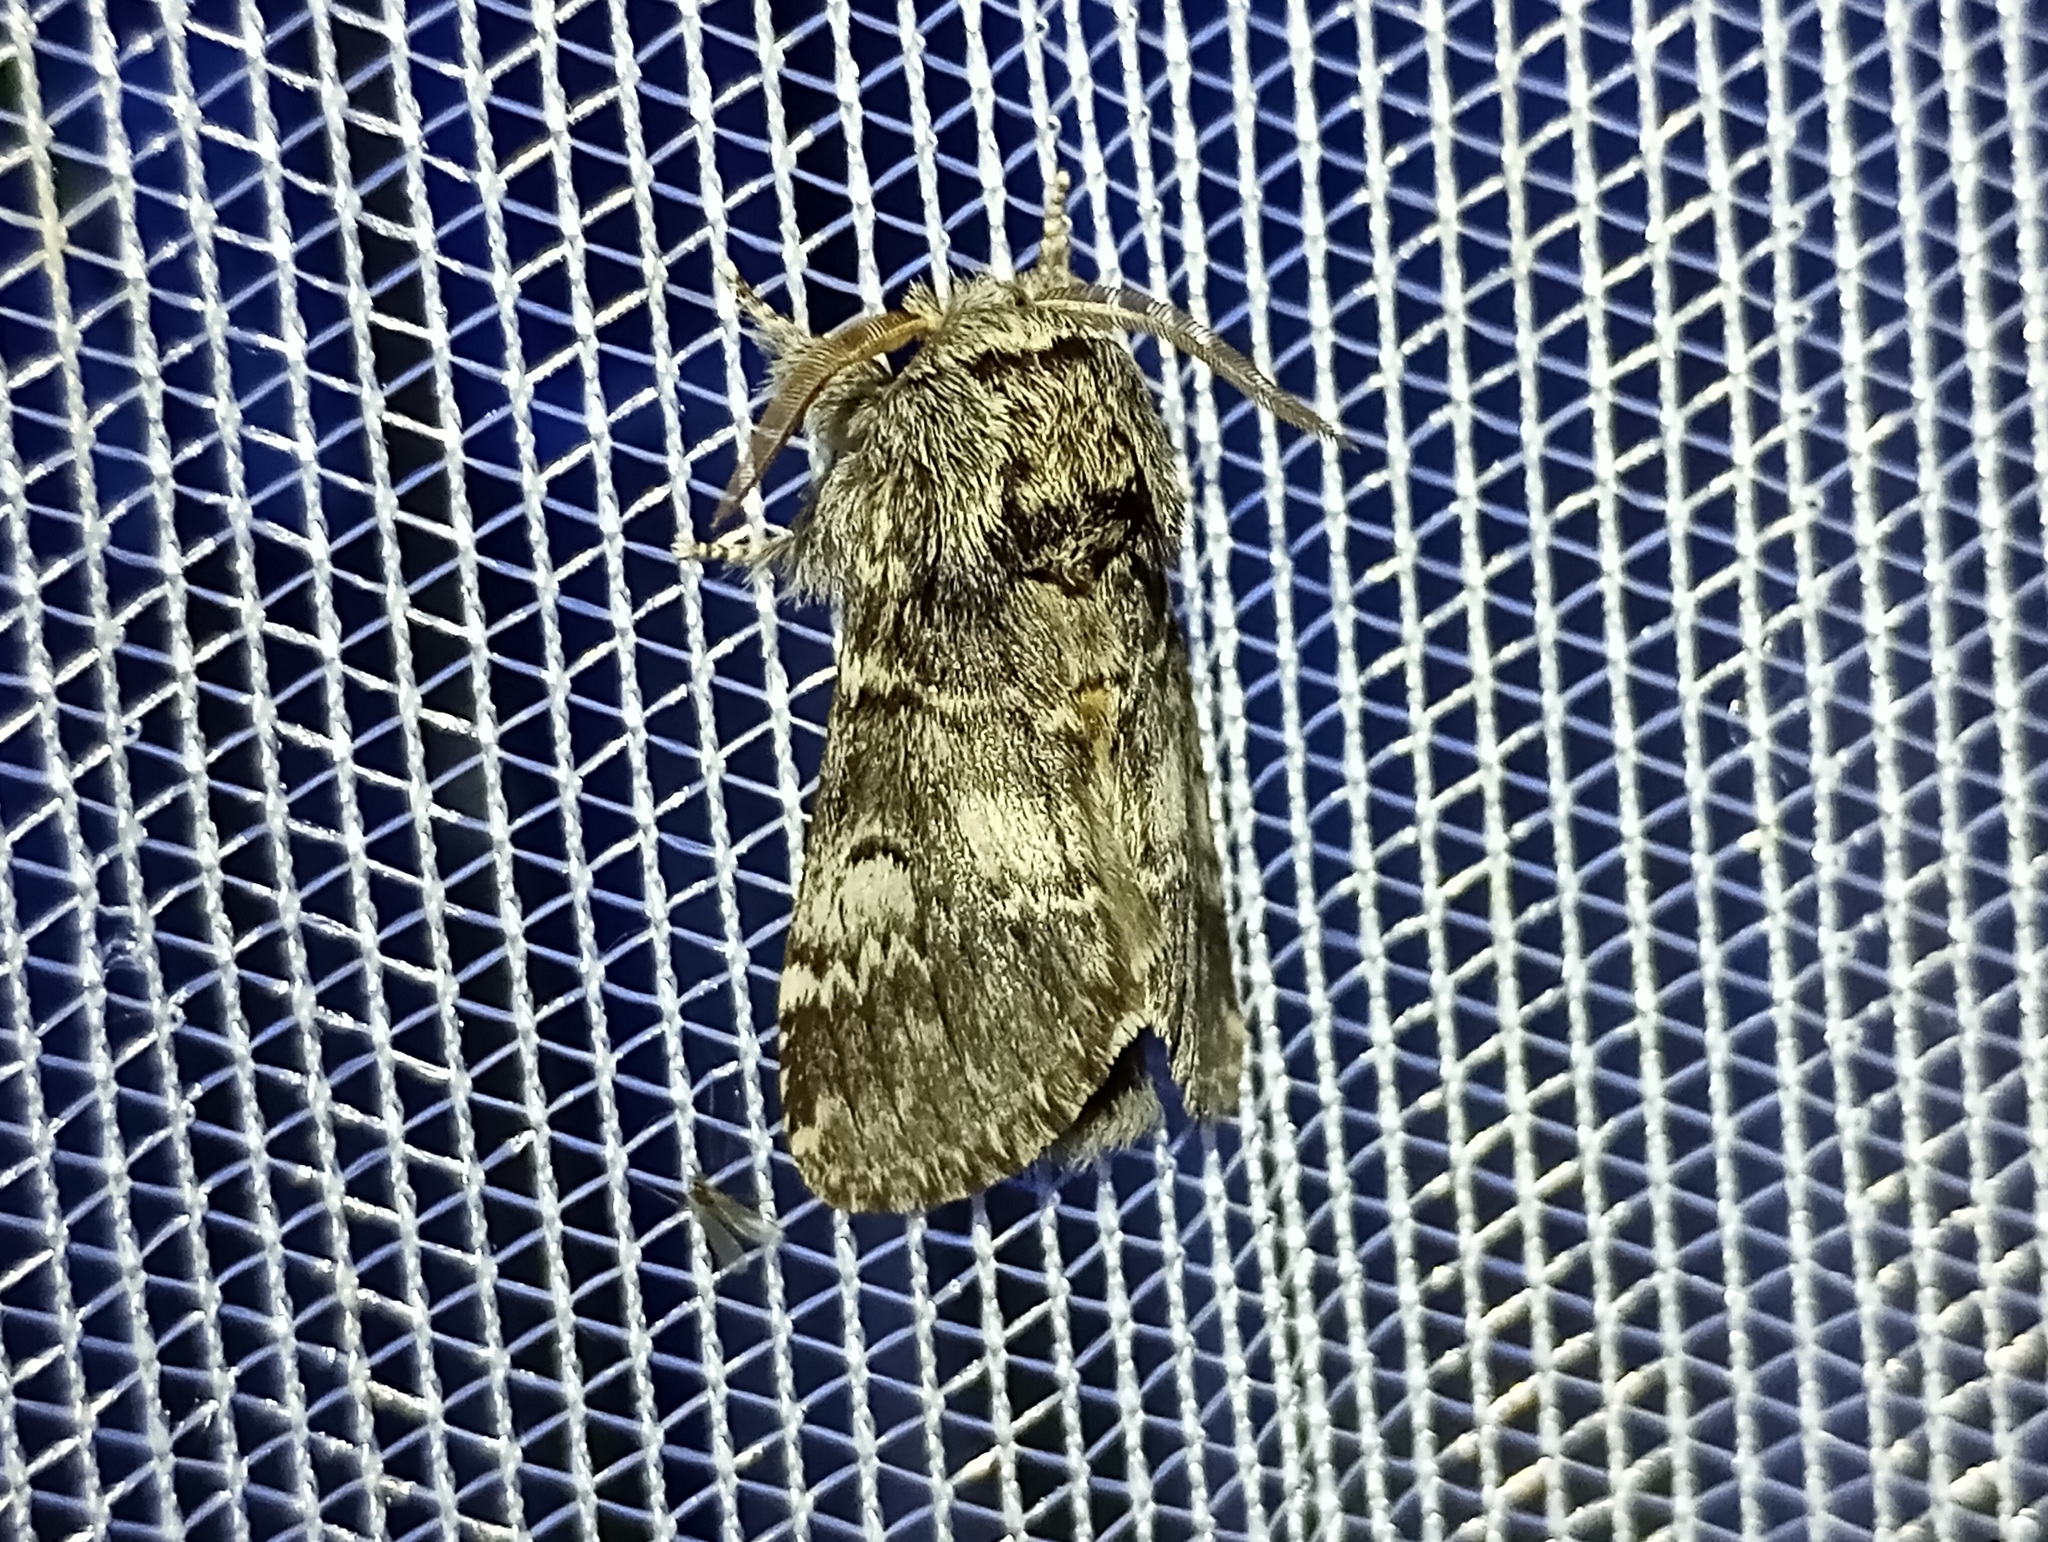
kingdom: Animalia
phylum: Arthropoda
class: Insecta
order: Lepidoptera
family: Notodontidae
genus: Drymonia
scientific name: Drymonia ruficornis
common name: Lunar marbled brown
